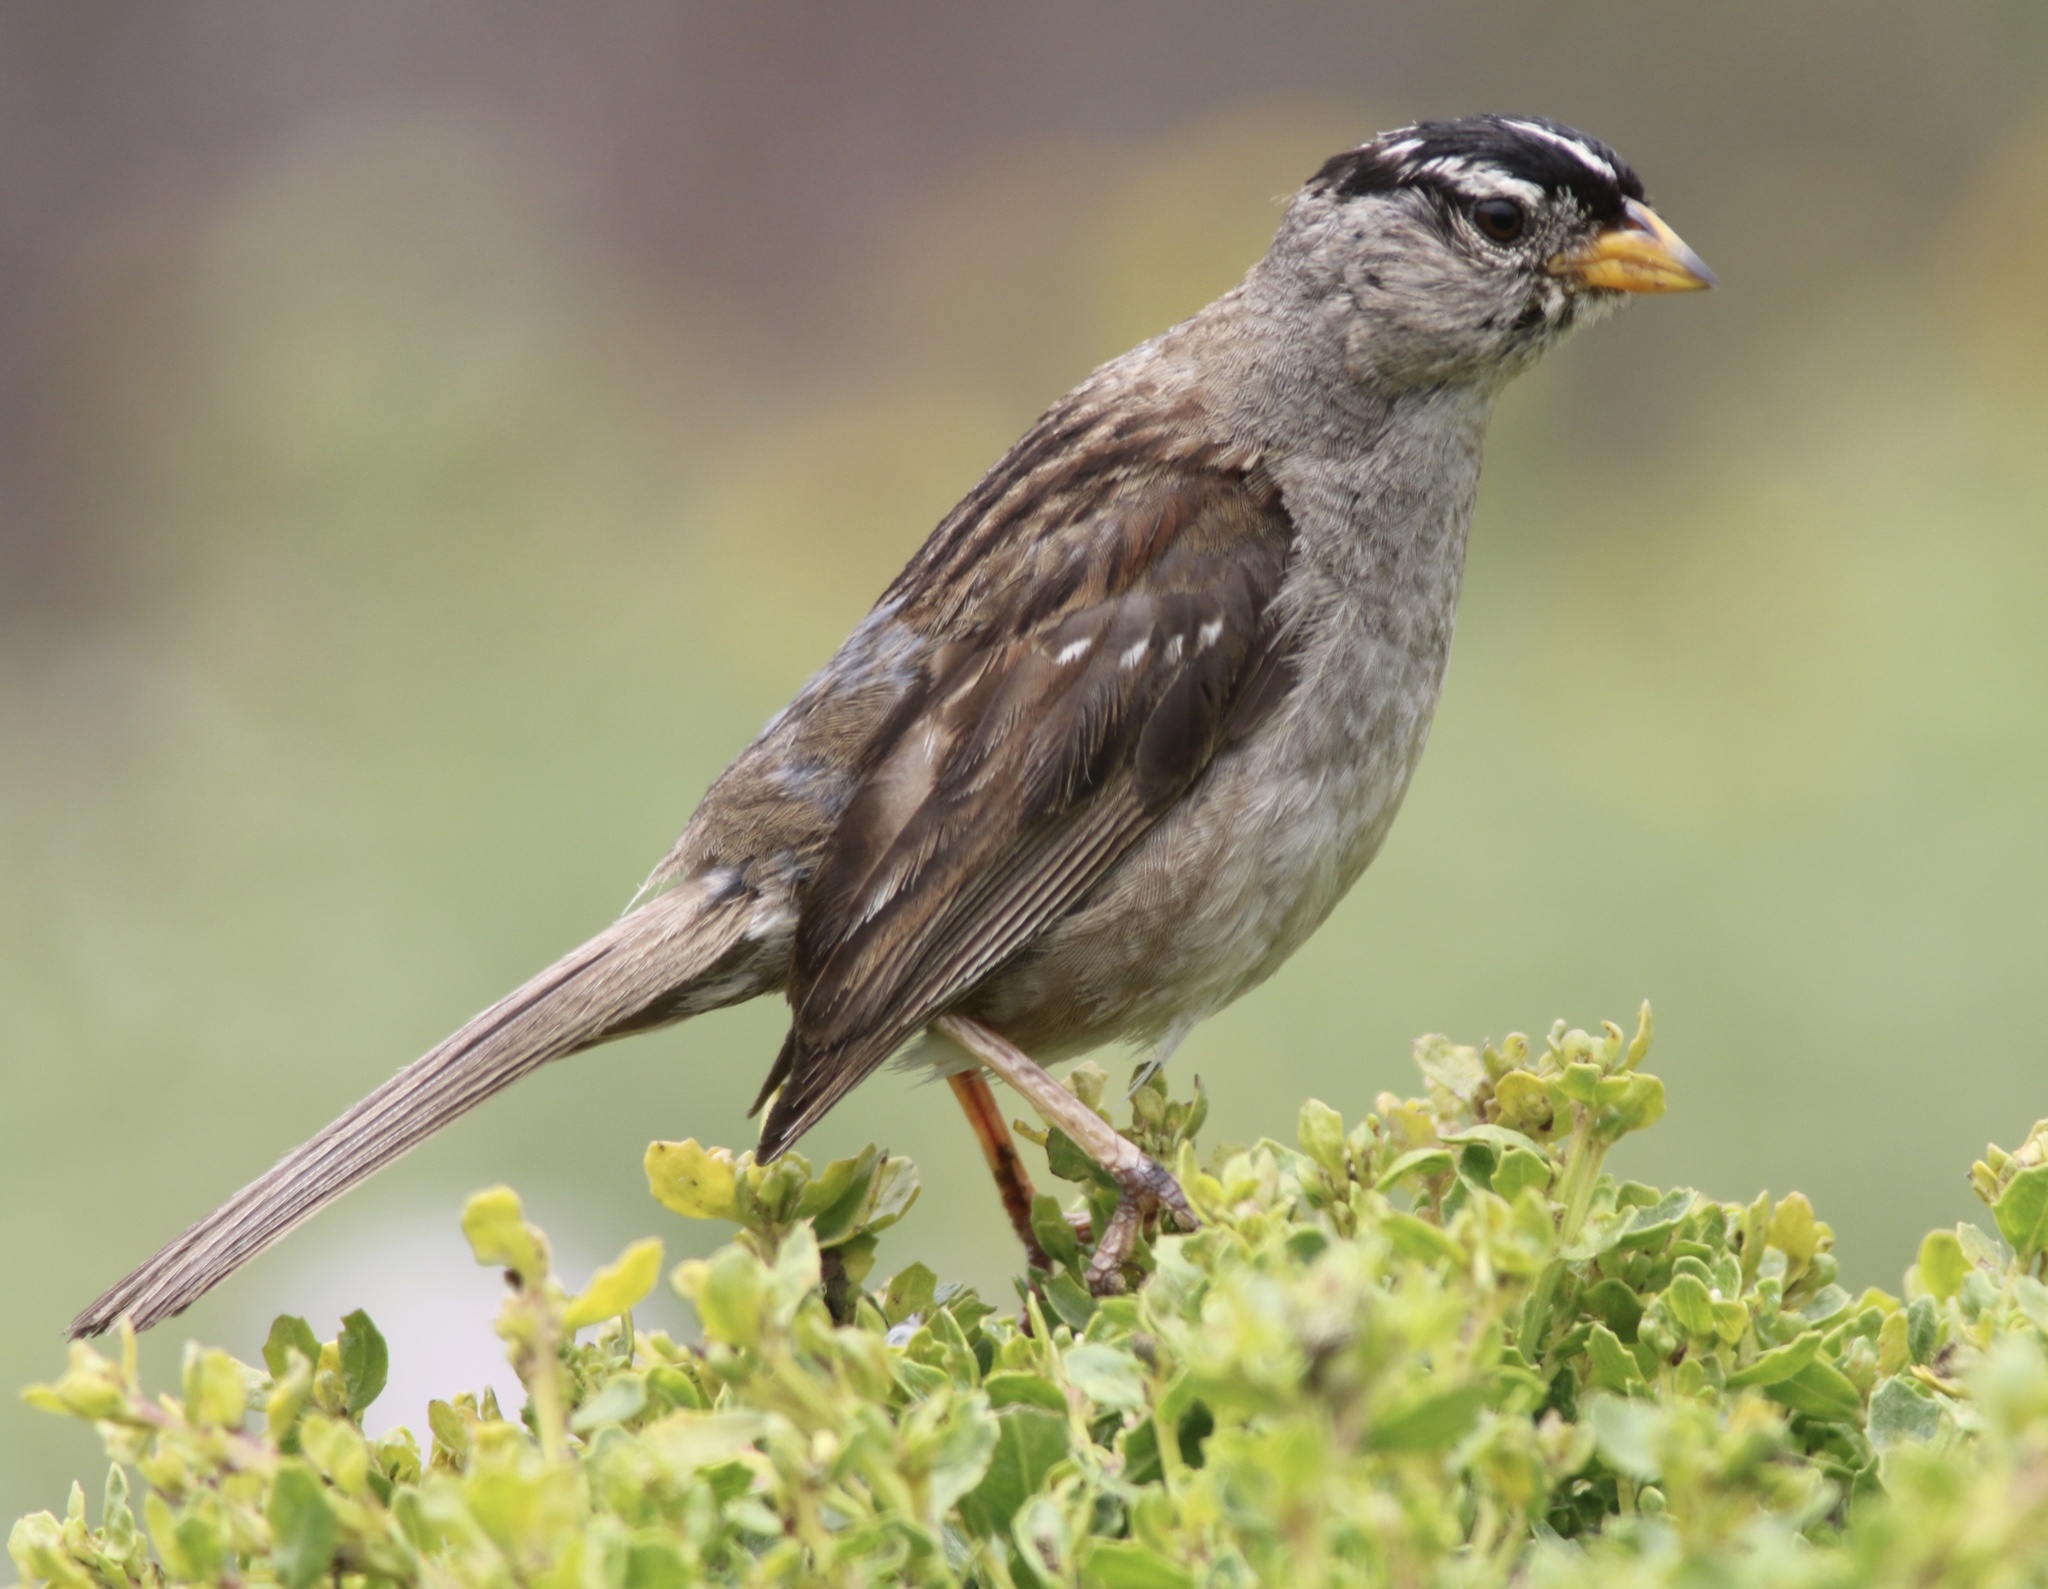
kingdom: Animalia
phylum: Chordata
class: Aves
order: Passeriformes
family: Passerellidae
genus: Zonotrichia
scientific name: Zonotrichia leucophrys
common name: White-crowned sparrow
